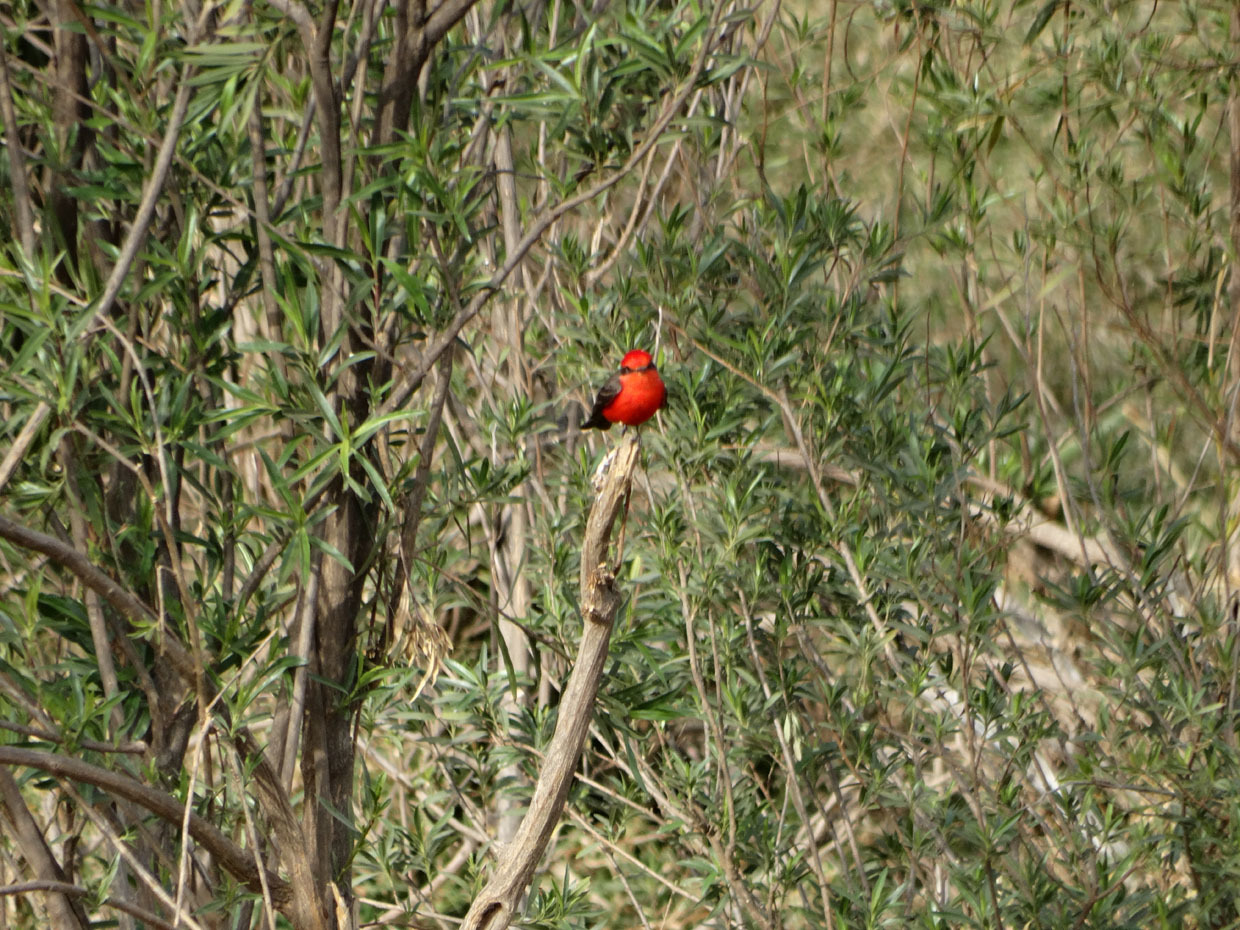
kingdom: Animalia
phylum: Chordata
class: Aves
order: Passeriformes
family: Tyrannidae
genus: Pyrocephalus
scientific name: Pyrocephalus rubinus
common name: Vermilion flycatcher
